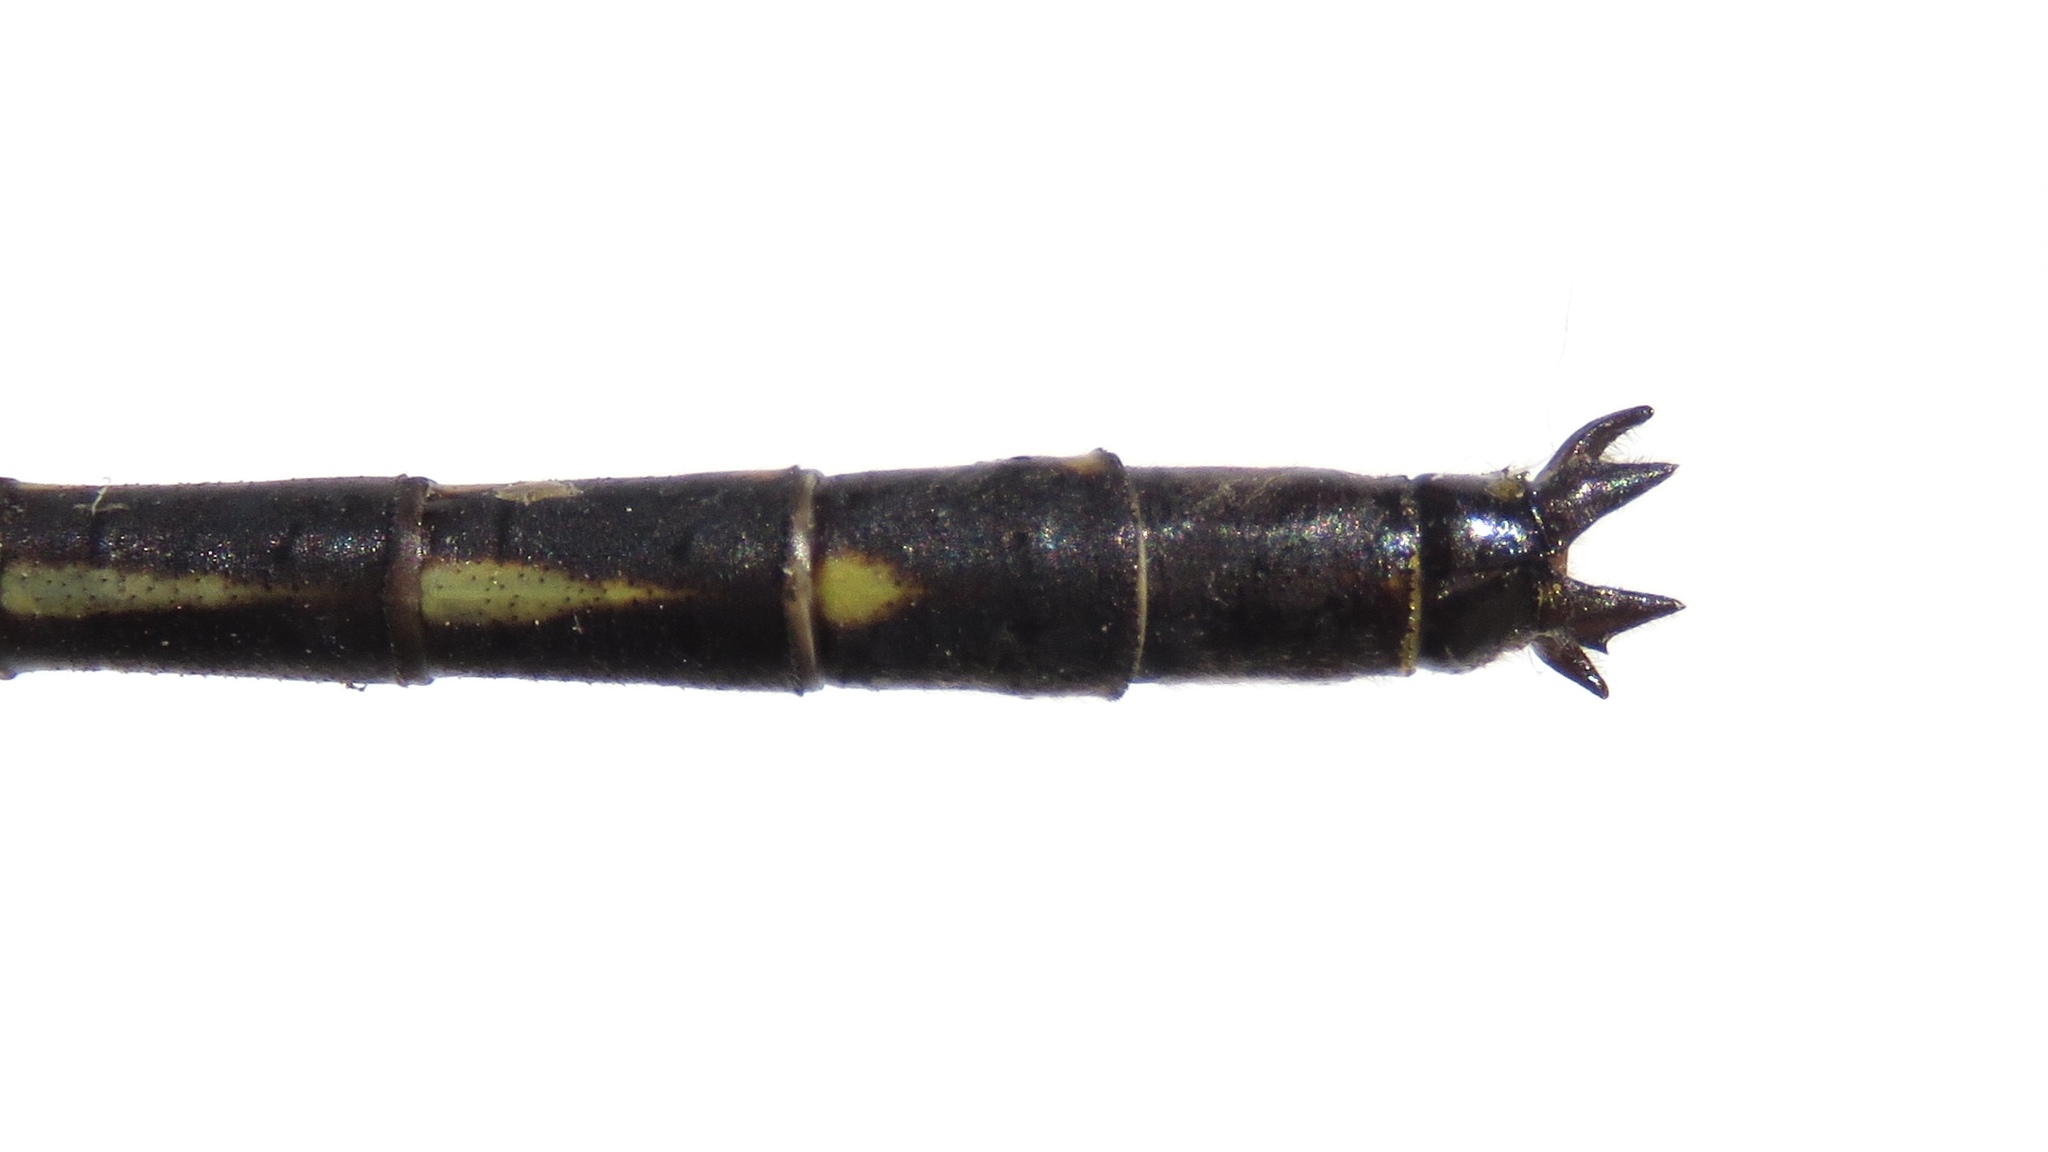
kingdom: Animalia
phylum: Arthropoda
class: Insecta
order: Odonata
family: Gomphidae
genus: Phanogomphus
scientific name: Phanogomphus spicatus
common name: Dusky clubtail
